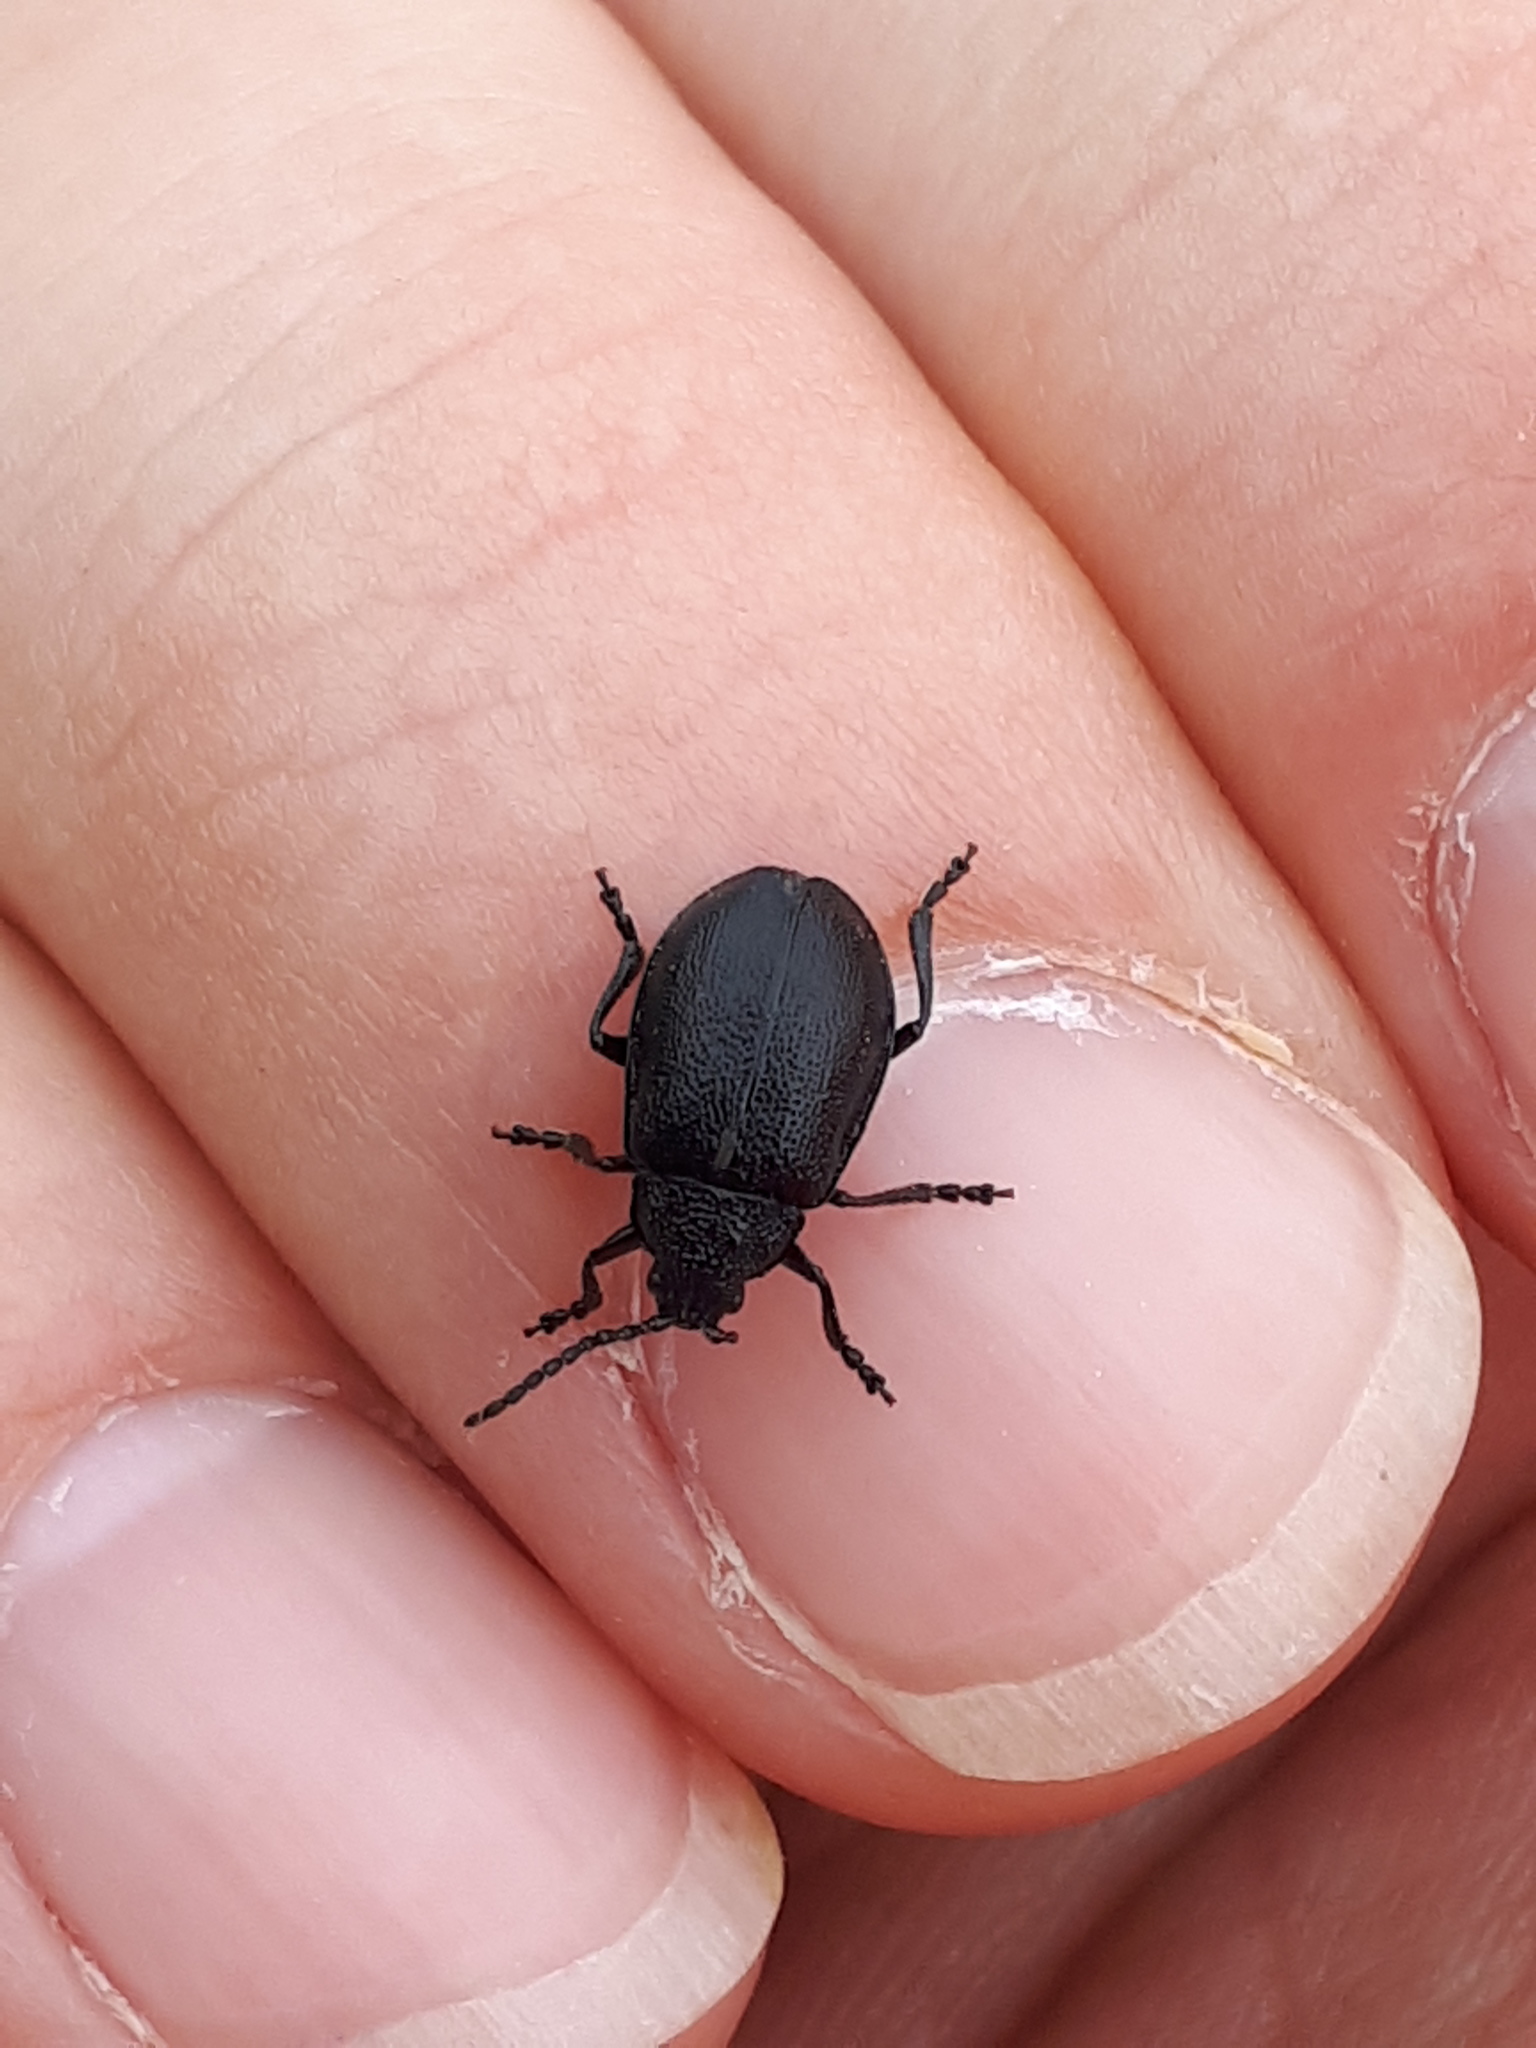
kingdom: Animalia
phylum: Arthropoda
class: Insecta
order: Coleoptera
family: Chrysomelidae
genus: Galeruca
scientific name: Galeruca tanaceti
